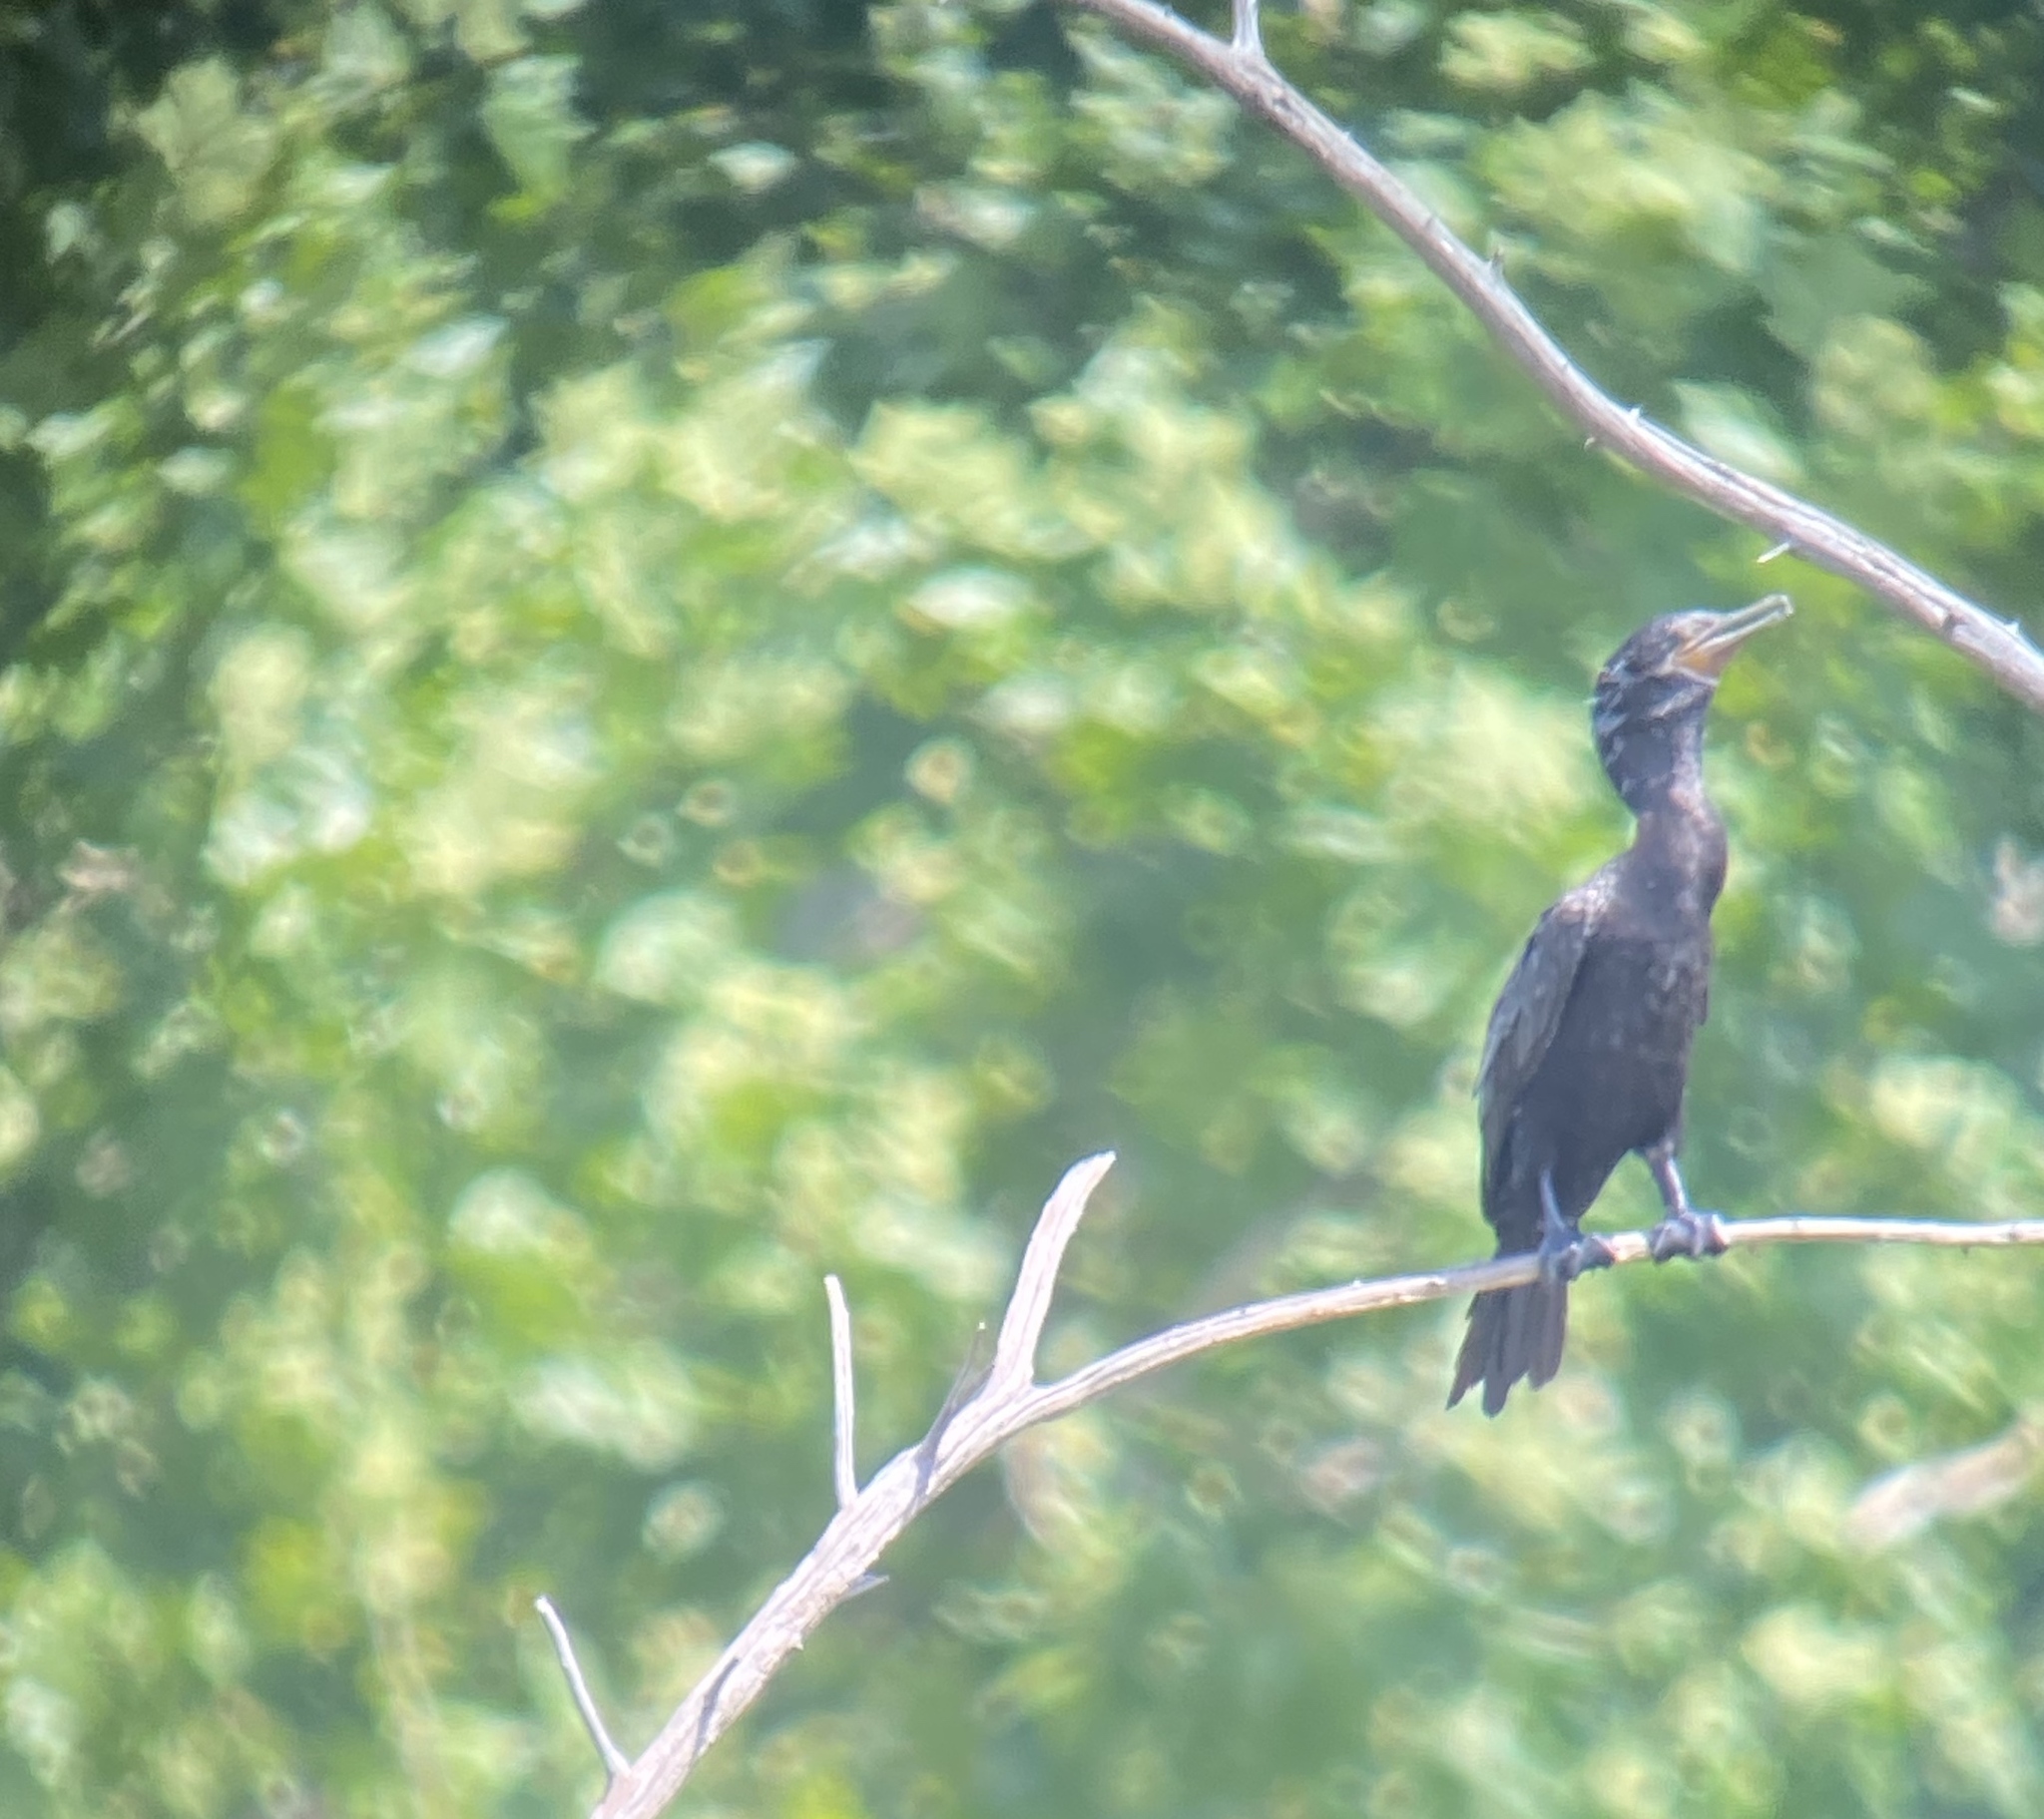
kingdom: Animalia
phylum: Chordata
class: Aves
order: Suliformes
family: Phalacrocoracidae
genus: Phalacrocorax
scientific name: Phalacrocorax brasilianus
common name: Neotropic cormorant
